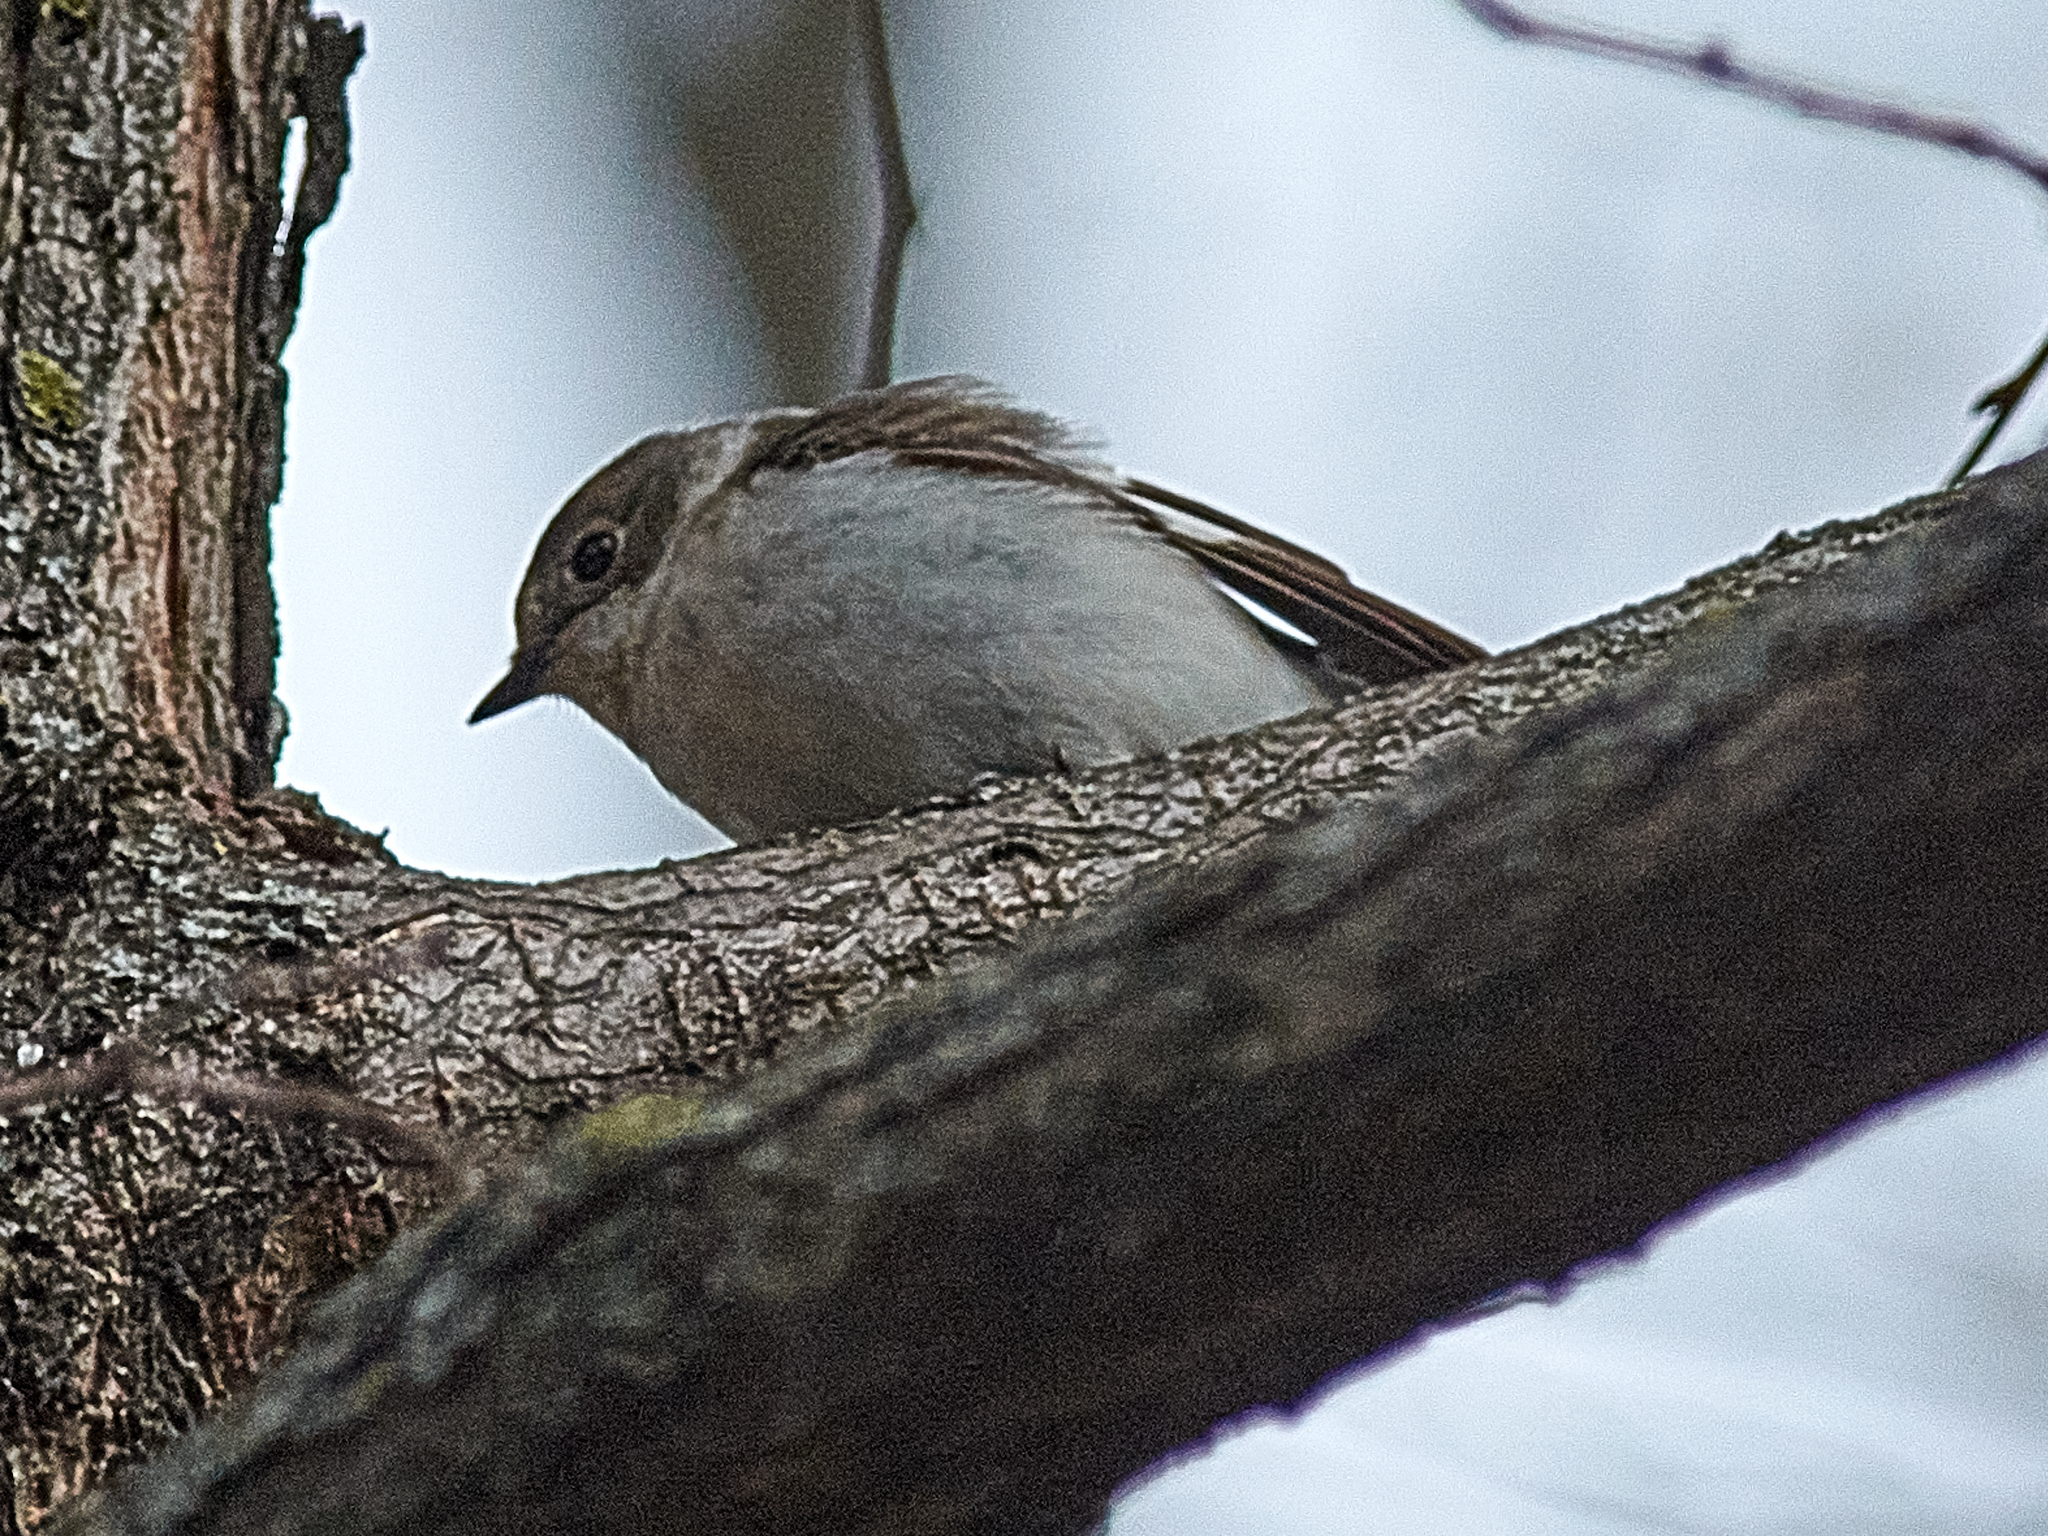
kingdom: Animalia
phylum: Chordata
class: Aves
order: Passeriformes
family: Muscicapidae
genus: Ficedula
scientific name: Ficedula albicollis
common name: Collared flycatcher
